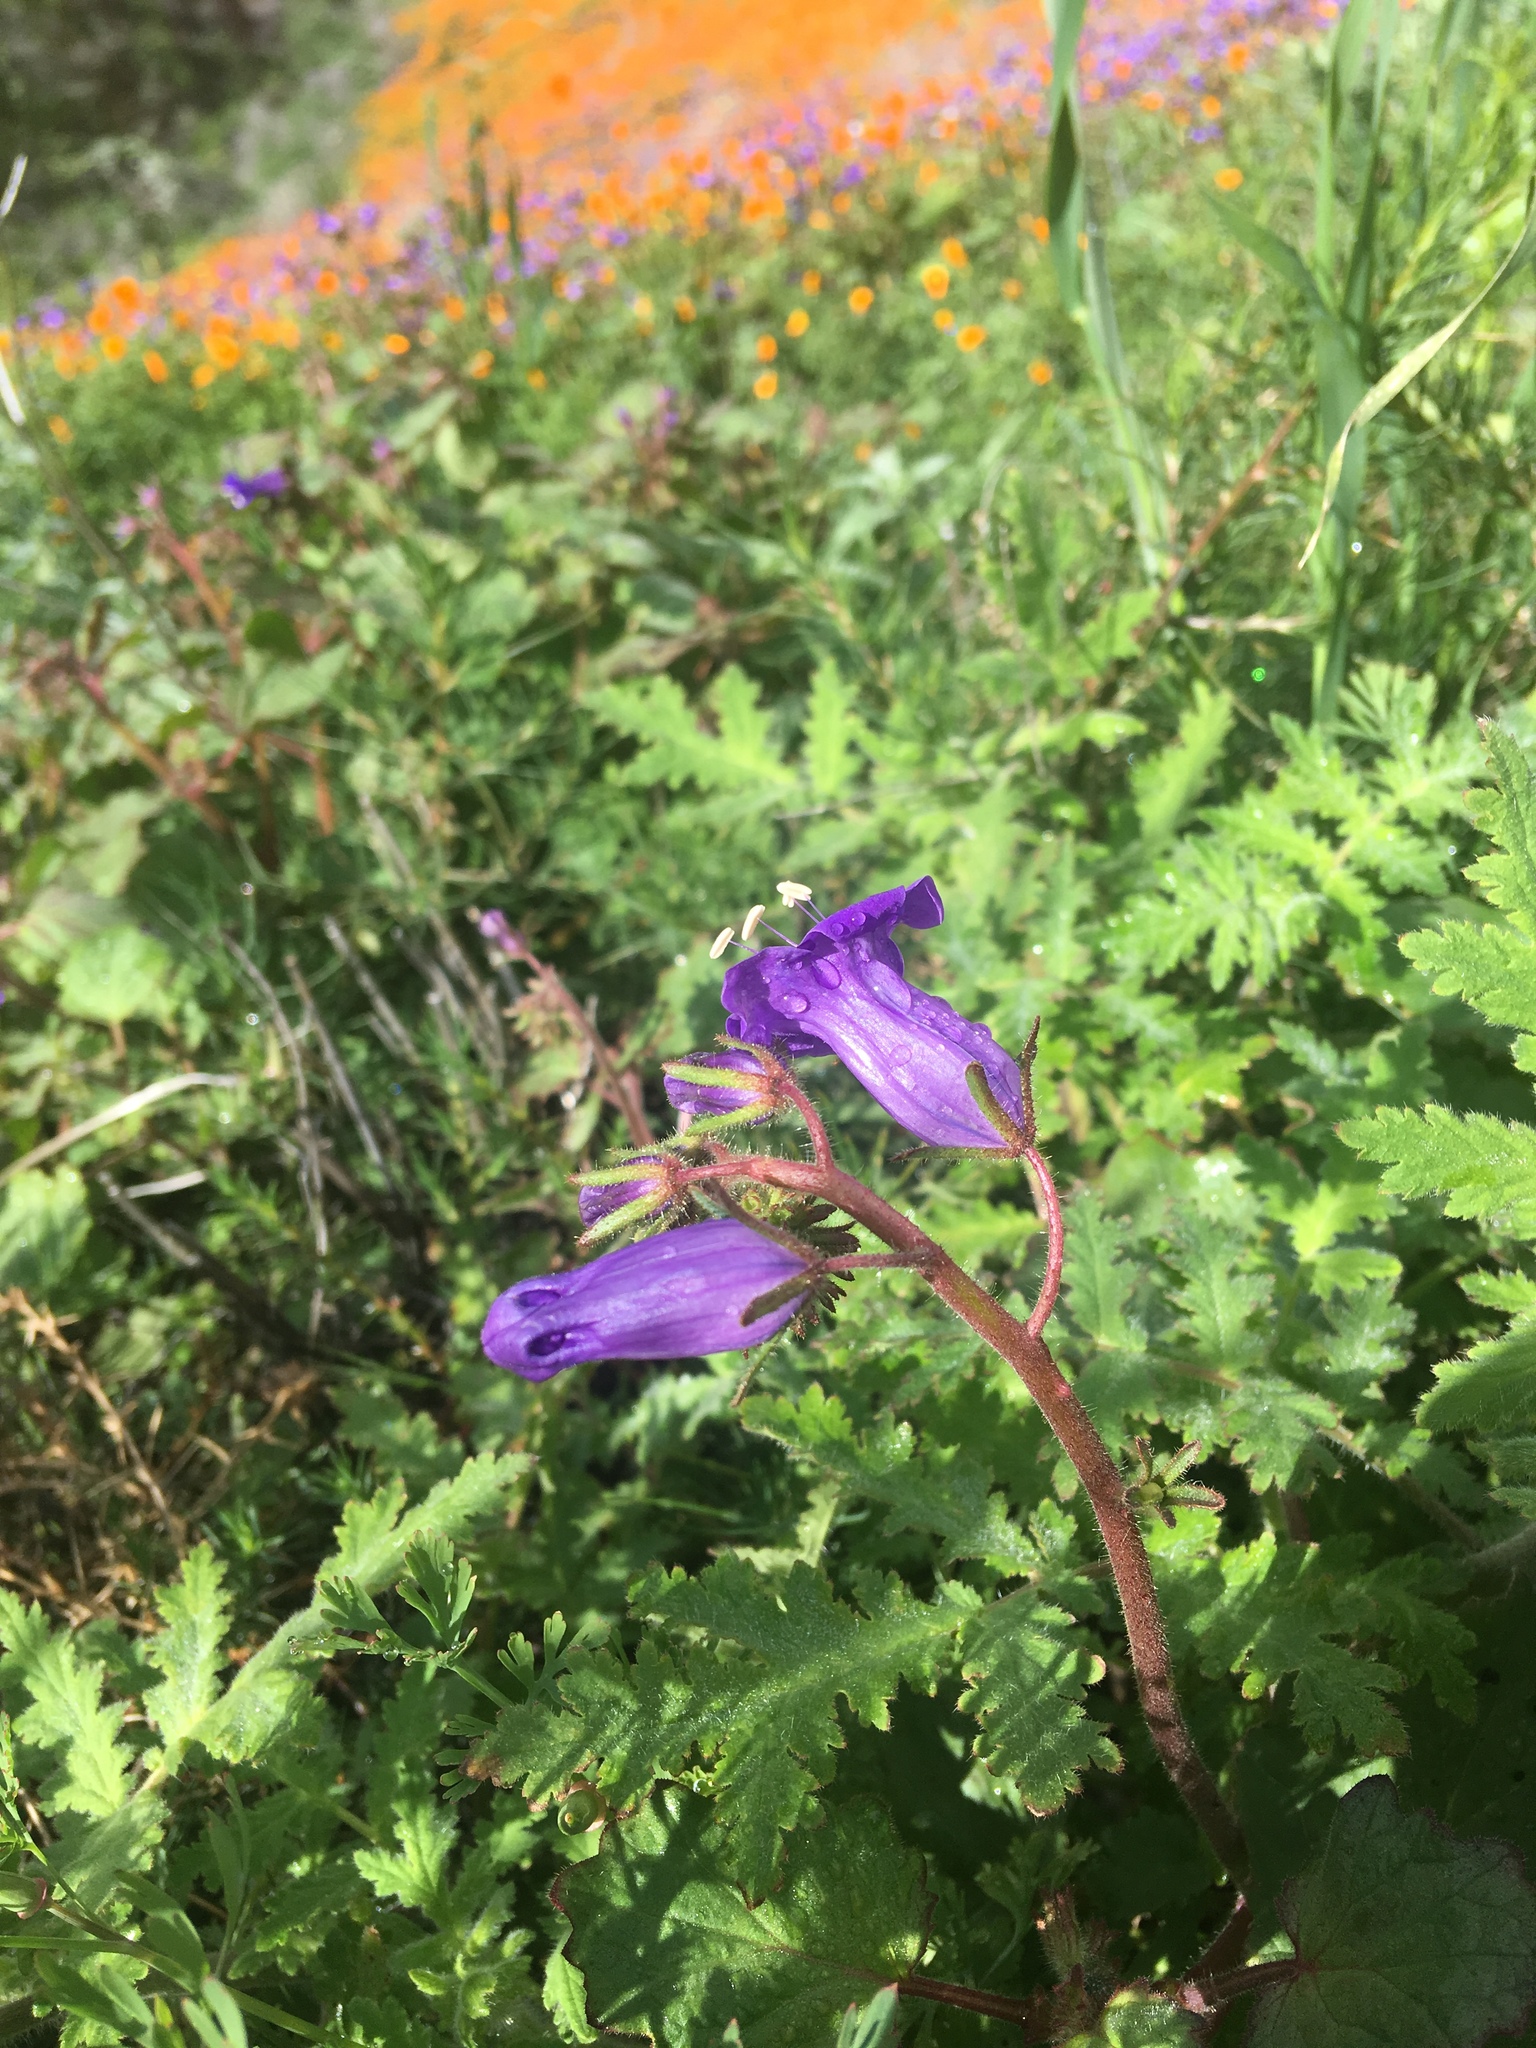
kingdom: Plantae
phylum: Tracheophyta
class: Magnoliopsida
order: Boraginales
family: Hydrophyllaceae
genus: Phacelia
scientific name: Phacelia minor
